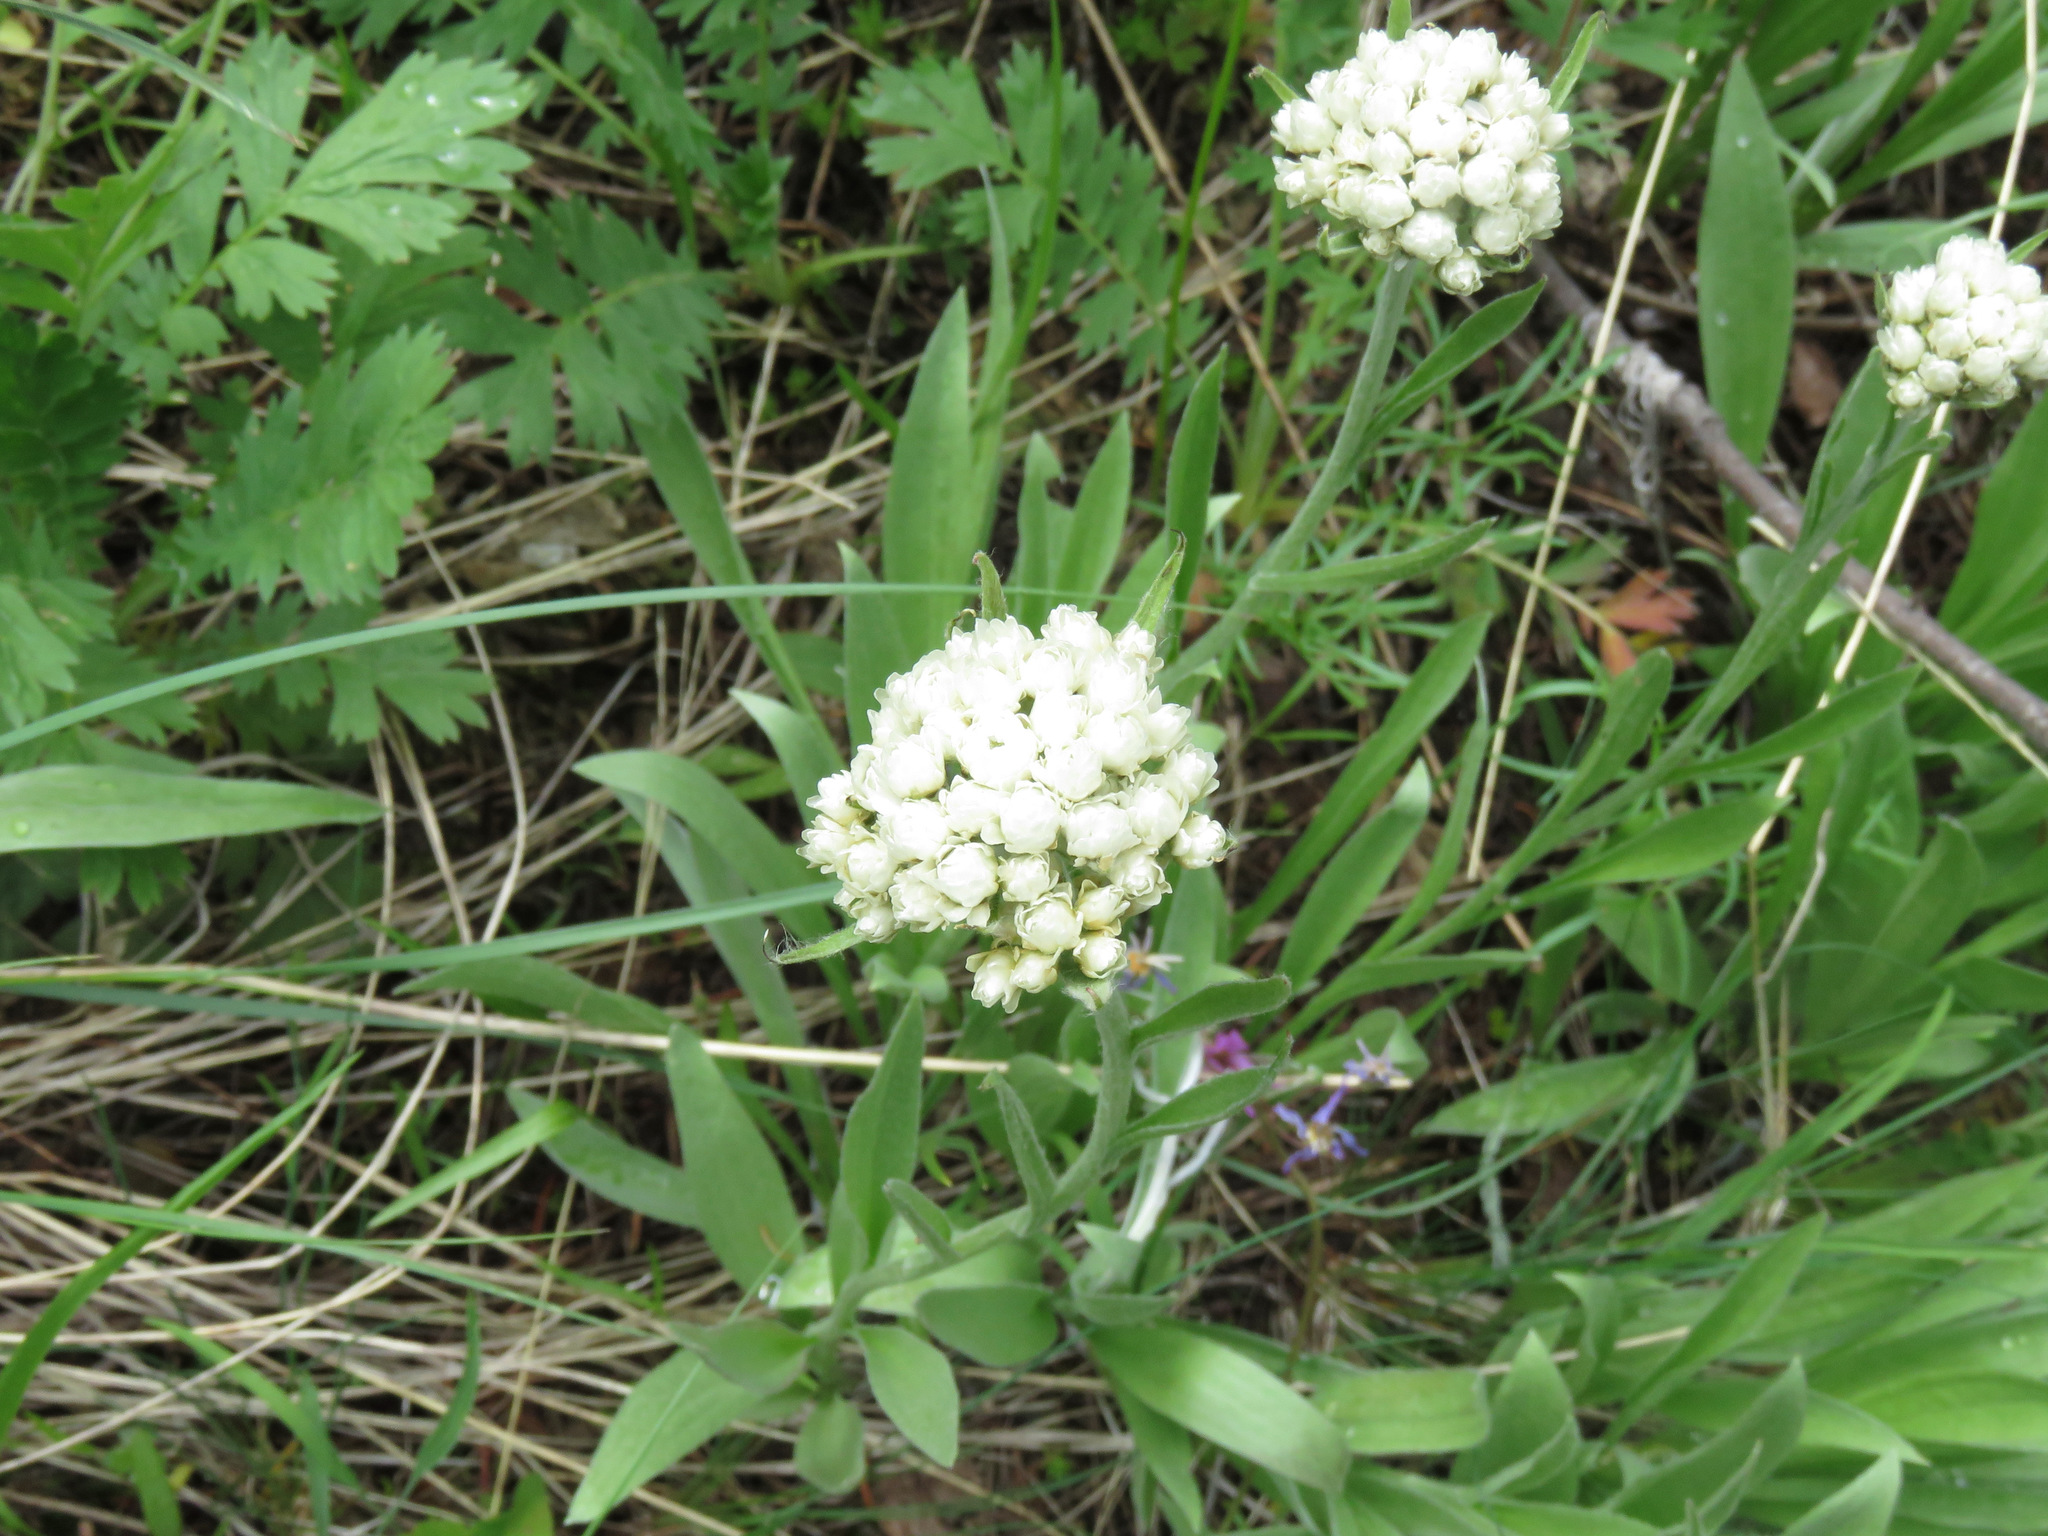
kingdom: Plantae
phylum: Tracheophyta
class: Magnoliopsida
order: Asterales
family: Asteraceae
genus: Antennaria
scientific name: Antennaria anaphaloides
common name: Tall pussytoes
